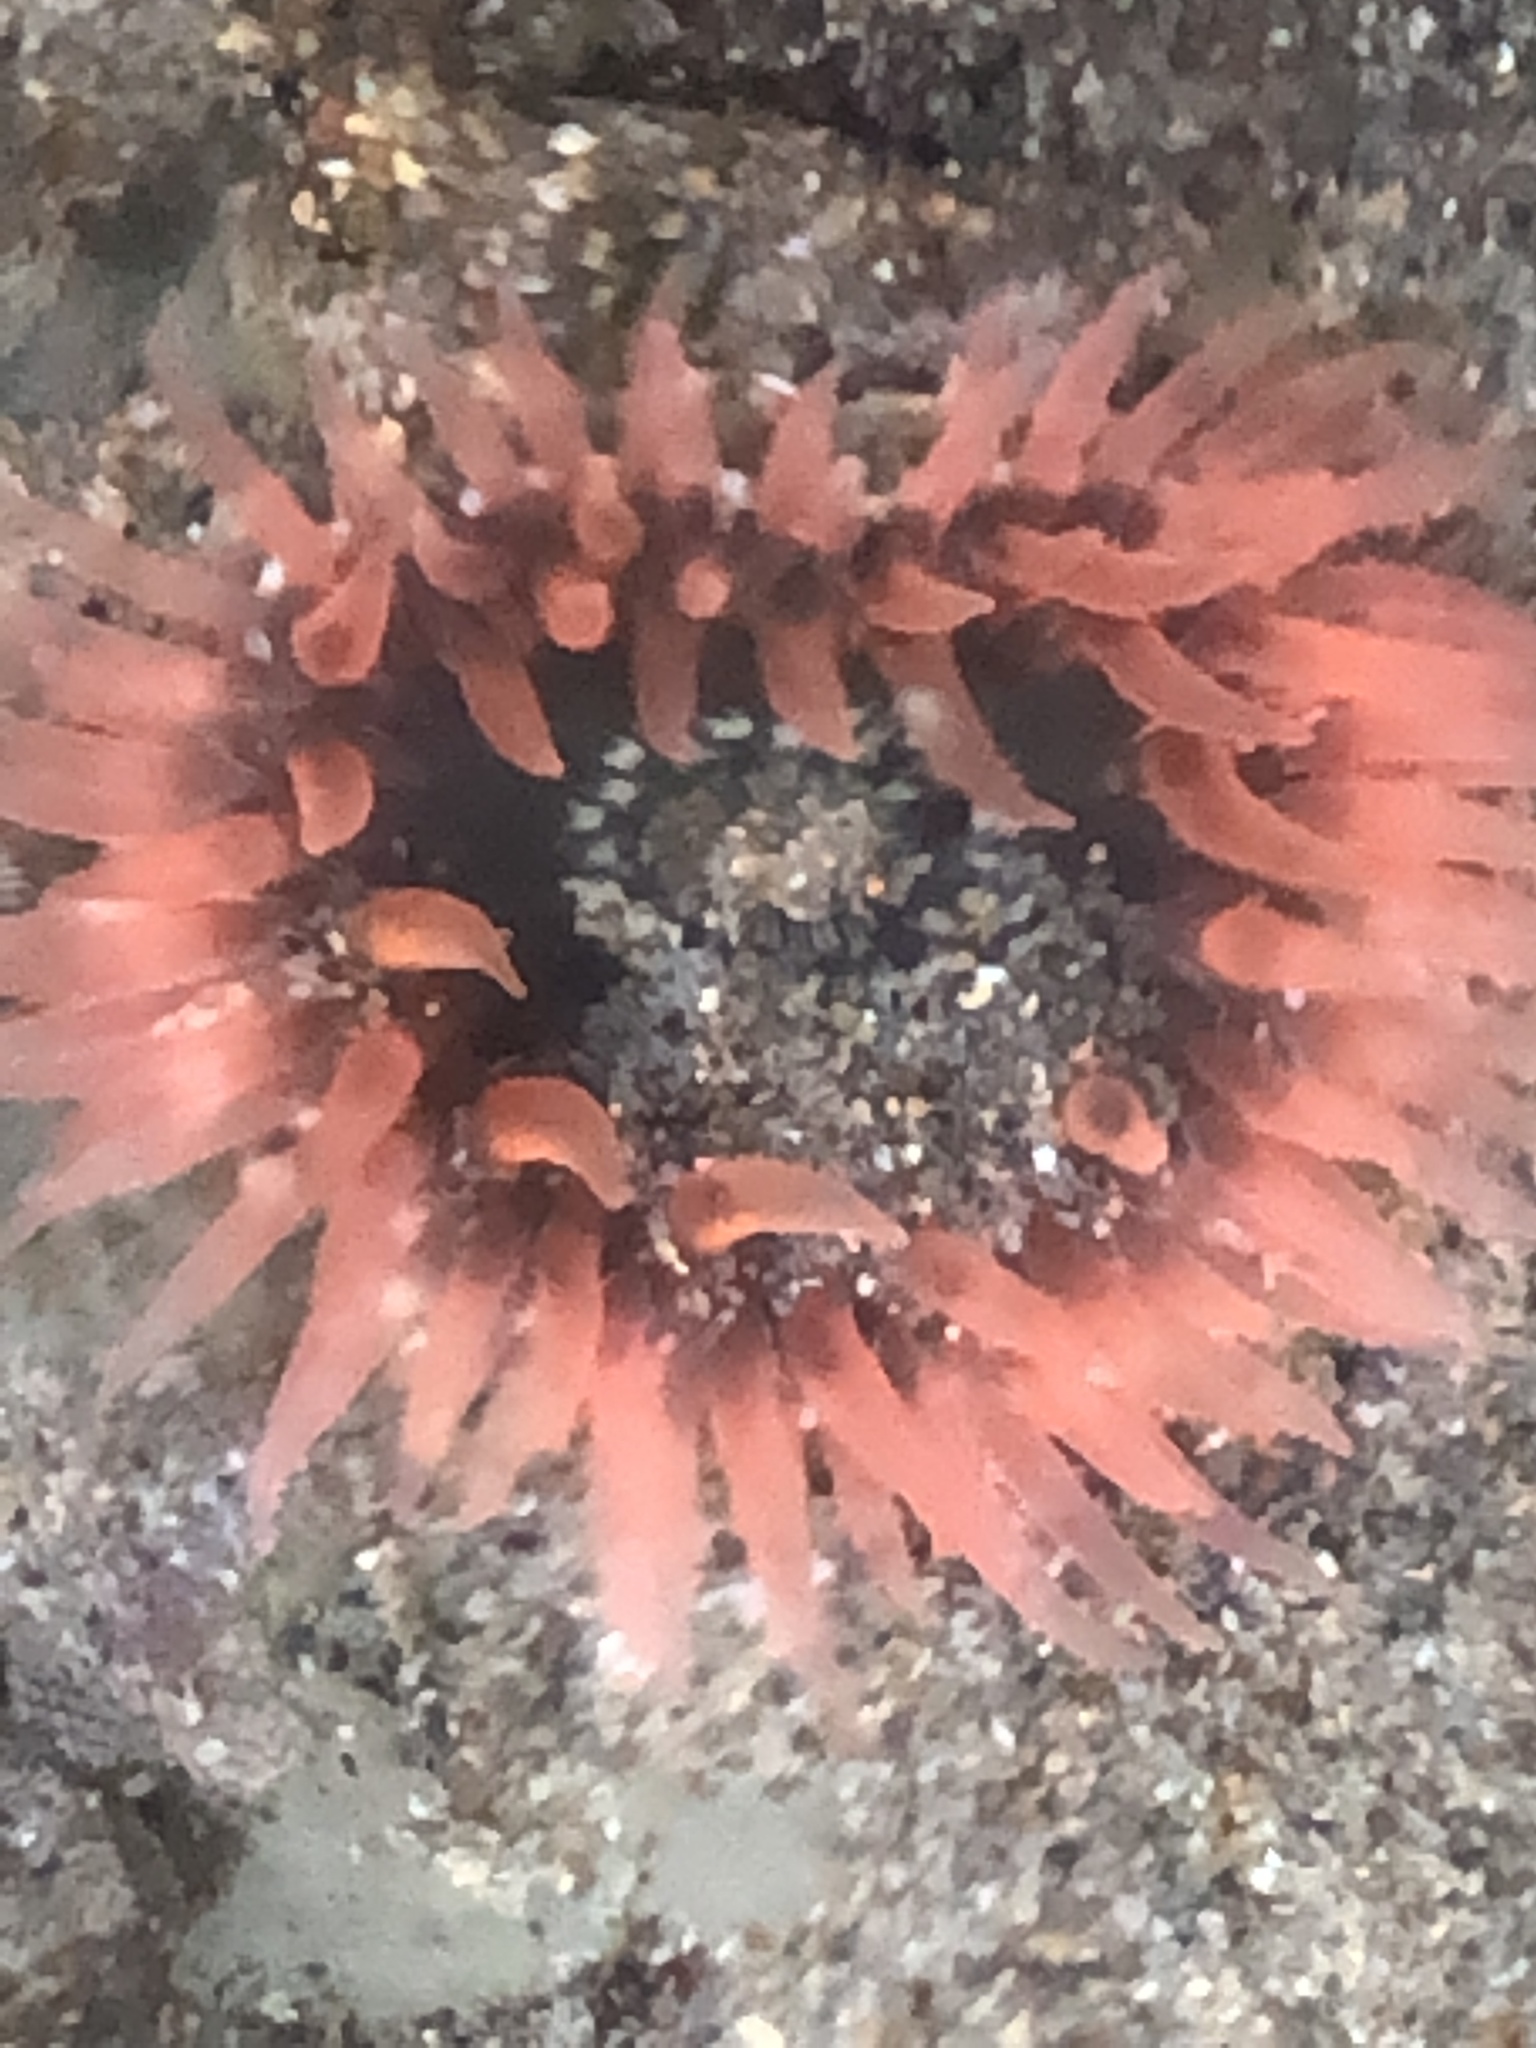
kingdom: Animalia
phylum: Cnidaria
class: Anthozoa
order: Actiniaria
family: Actiniidae
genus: Anthopleura
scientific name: Anthopleura artemisia
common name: Buried sea anemone
